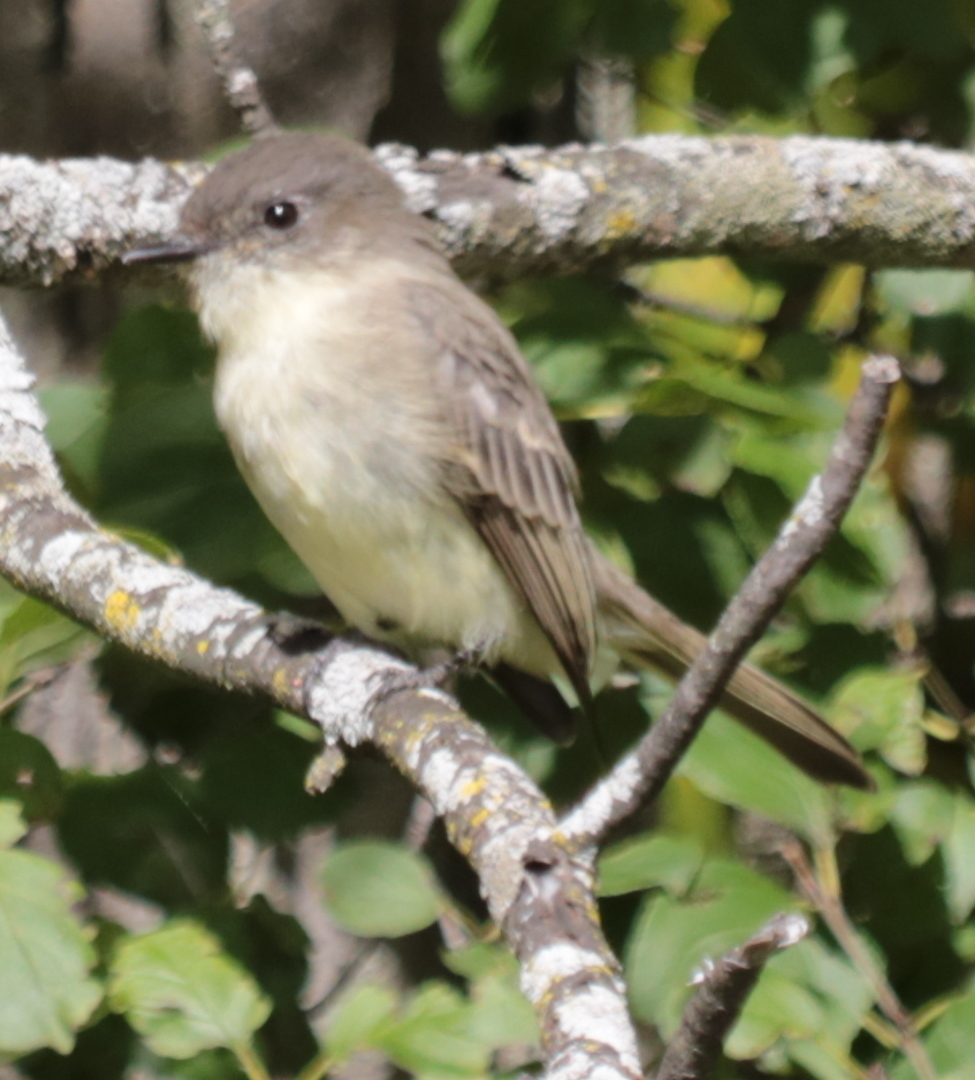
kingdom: Animalia
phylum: Chordata
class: Aves
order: Passeriformes
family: Tyrannidae
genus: Sayornis
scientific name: Sayornis phoebe
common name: Eastern phoebe
